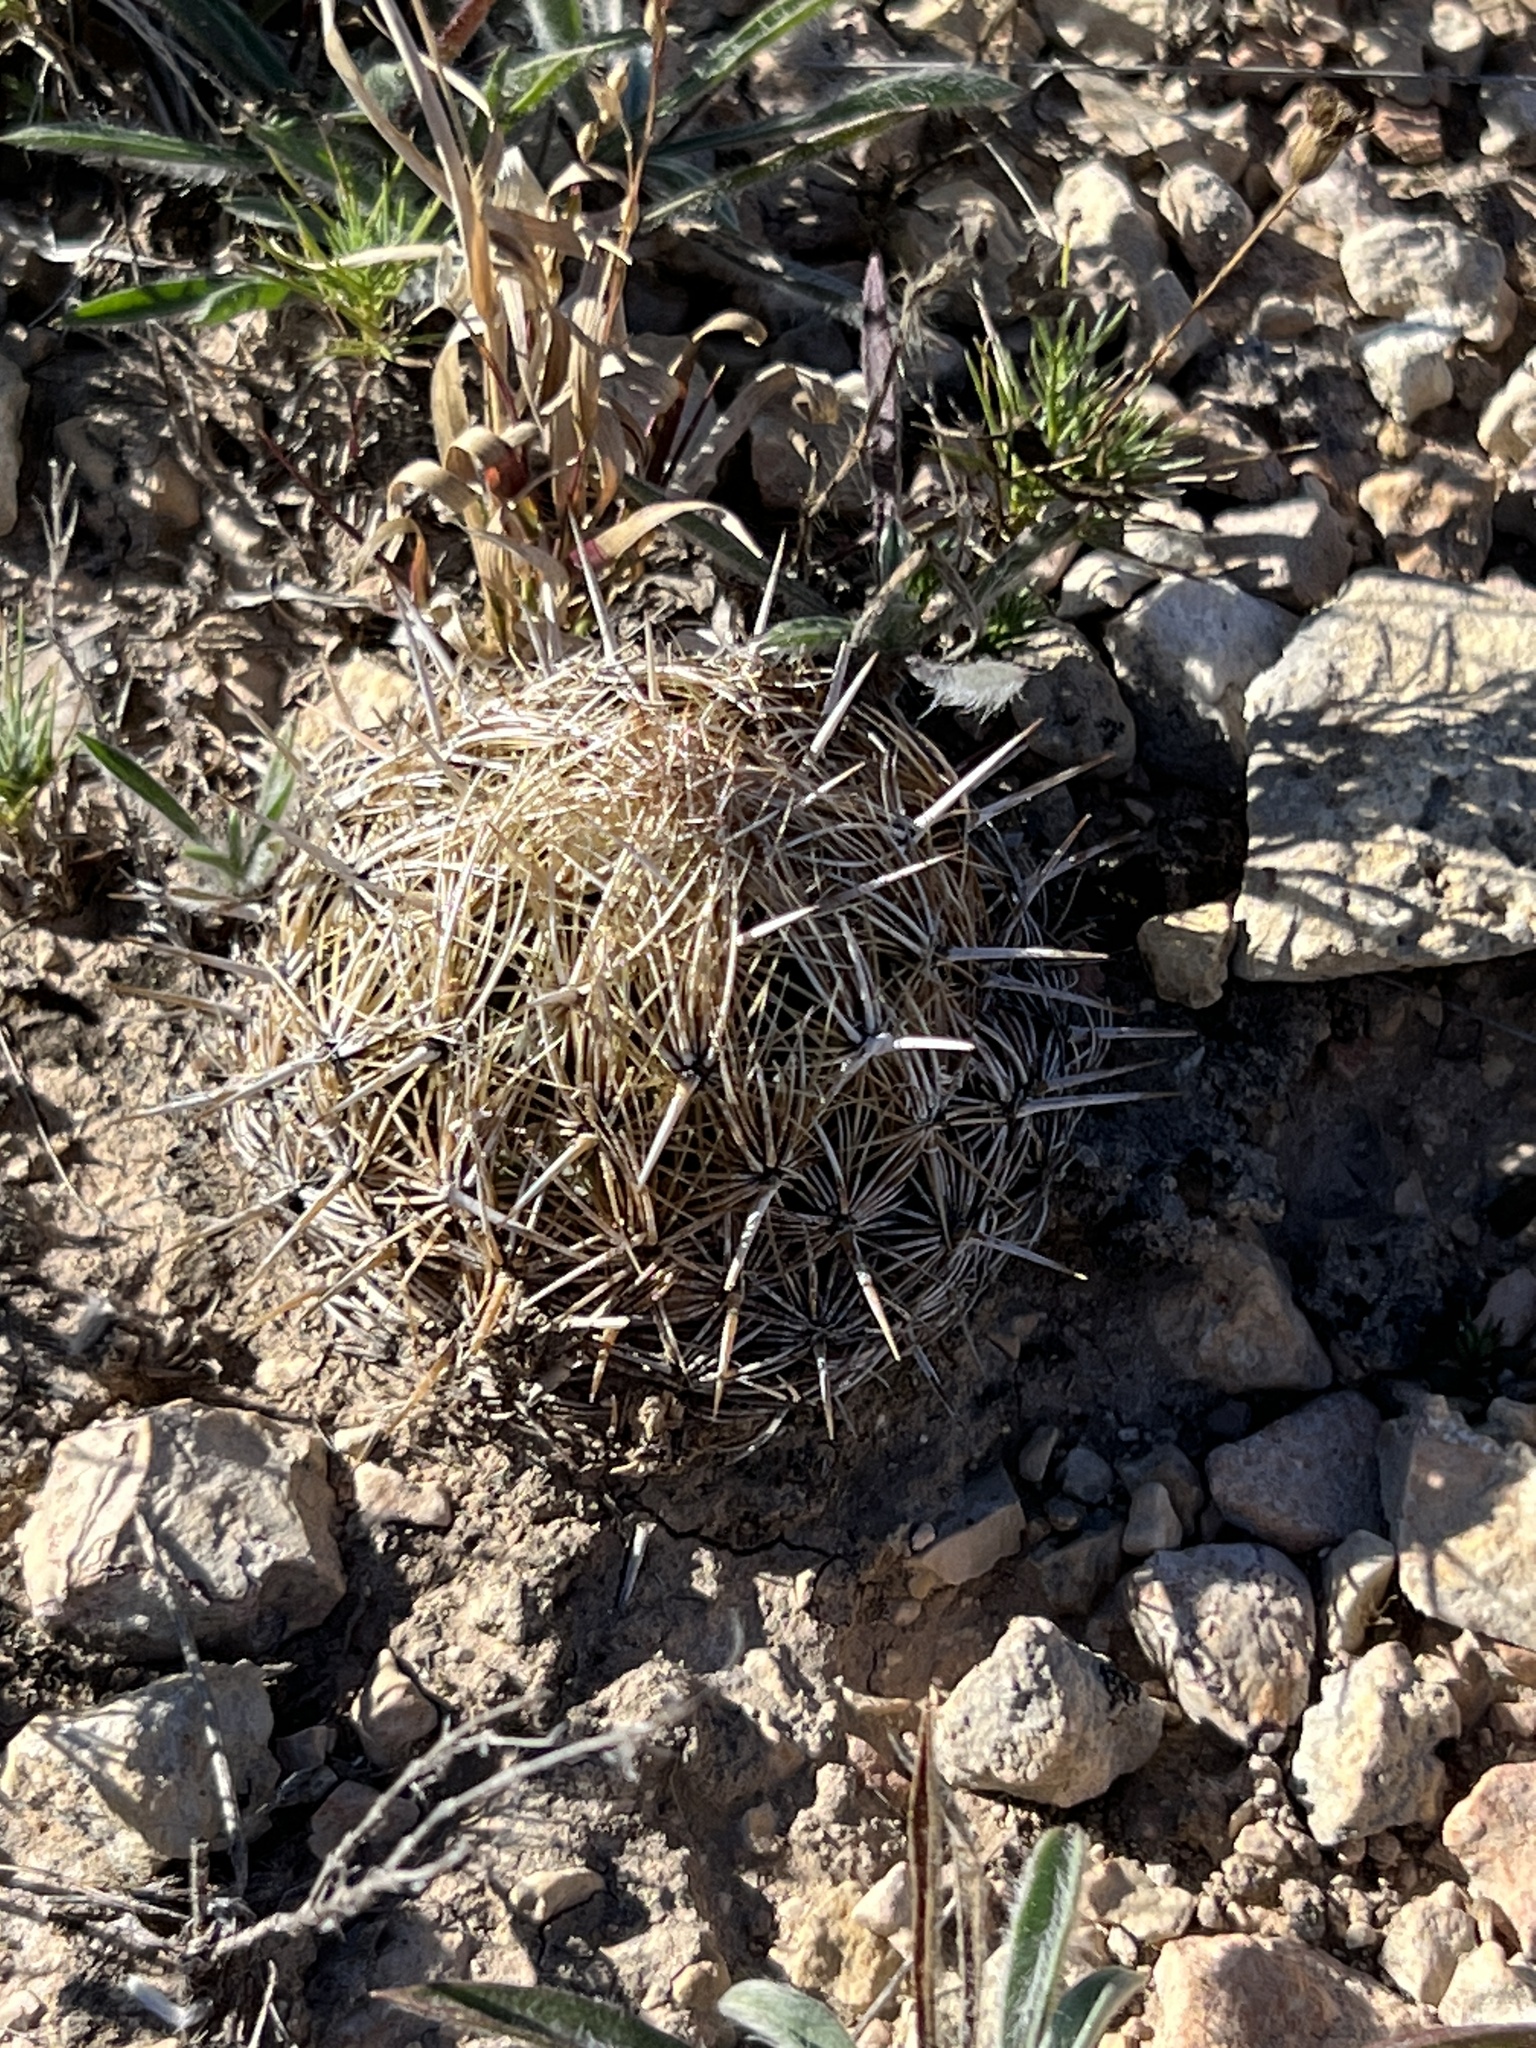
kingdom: Plantae
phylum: Tracheophyta
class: Magnoliopsida
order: Caryophyllales
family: Cactaceae
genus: Coryphantha
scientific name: Coryphantha echinus
